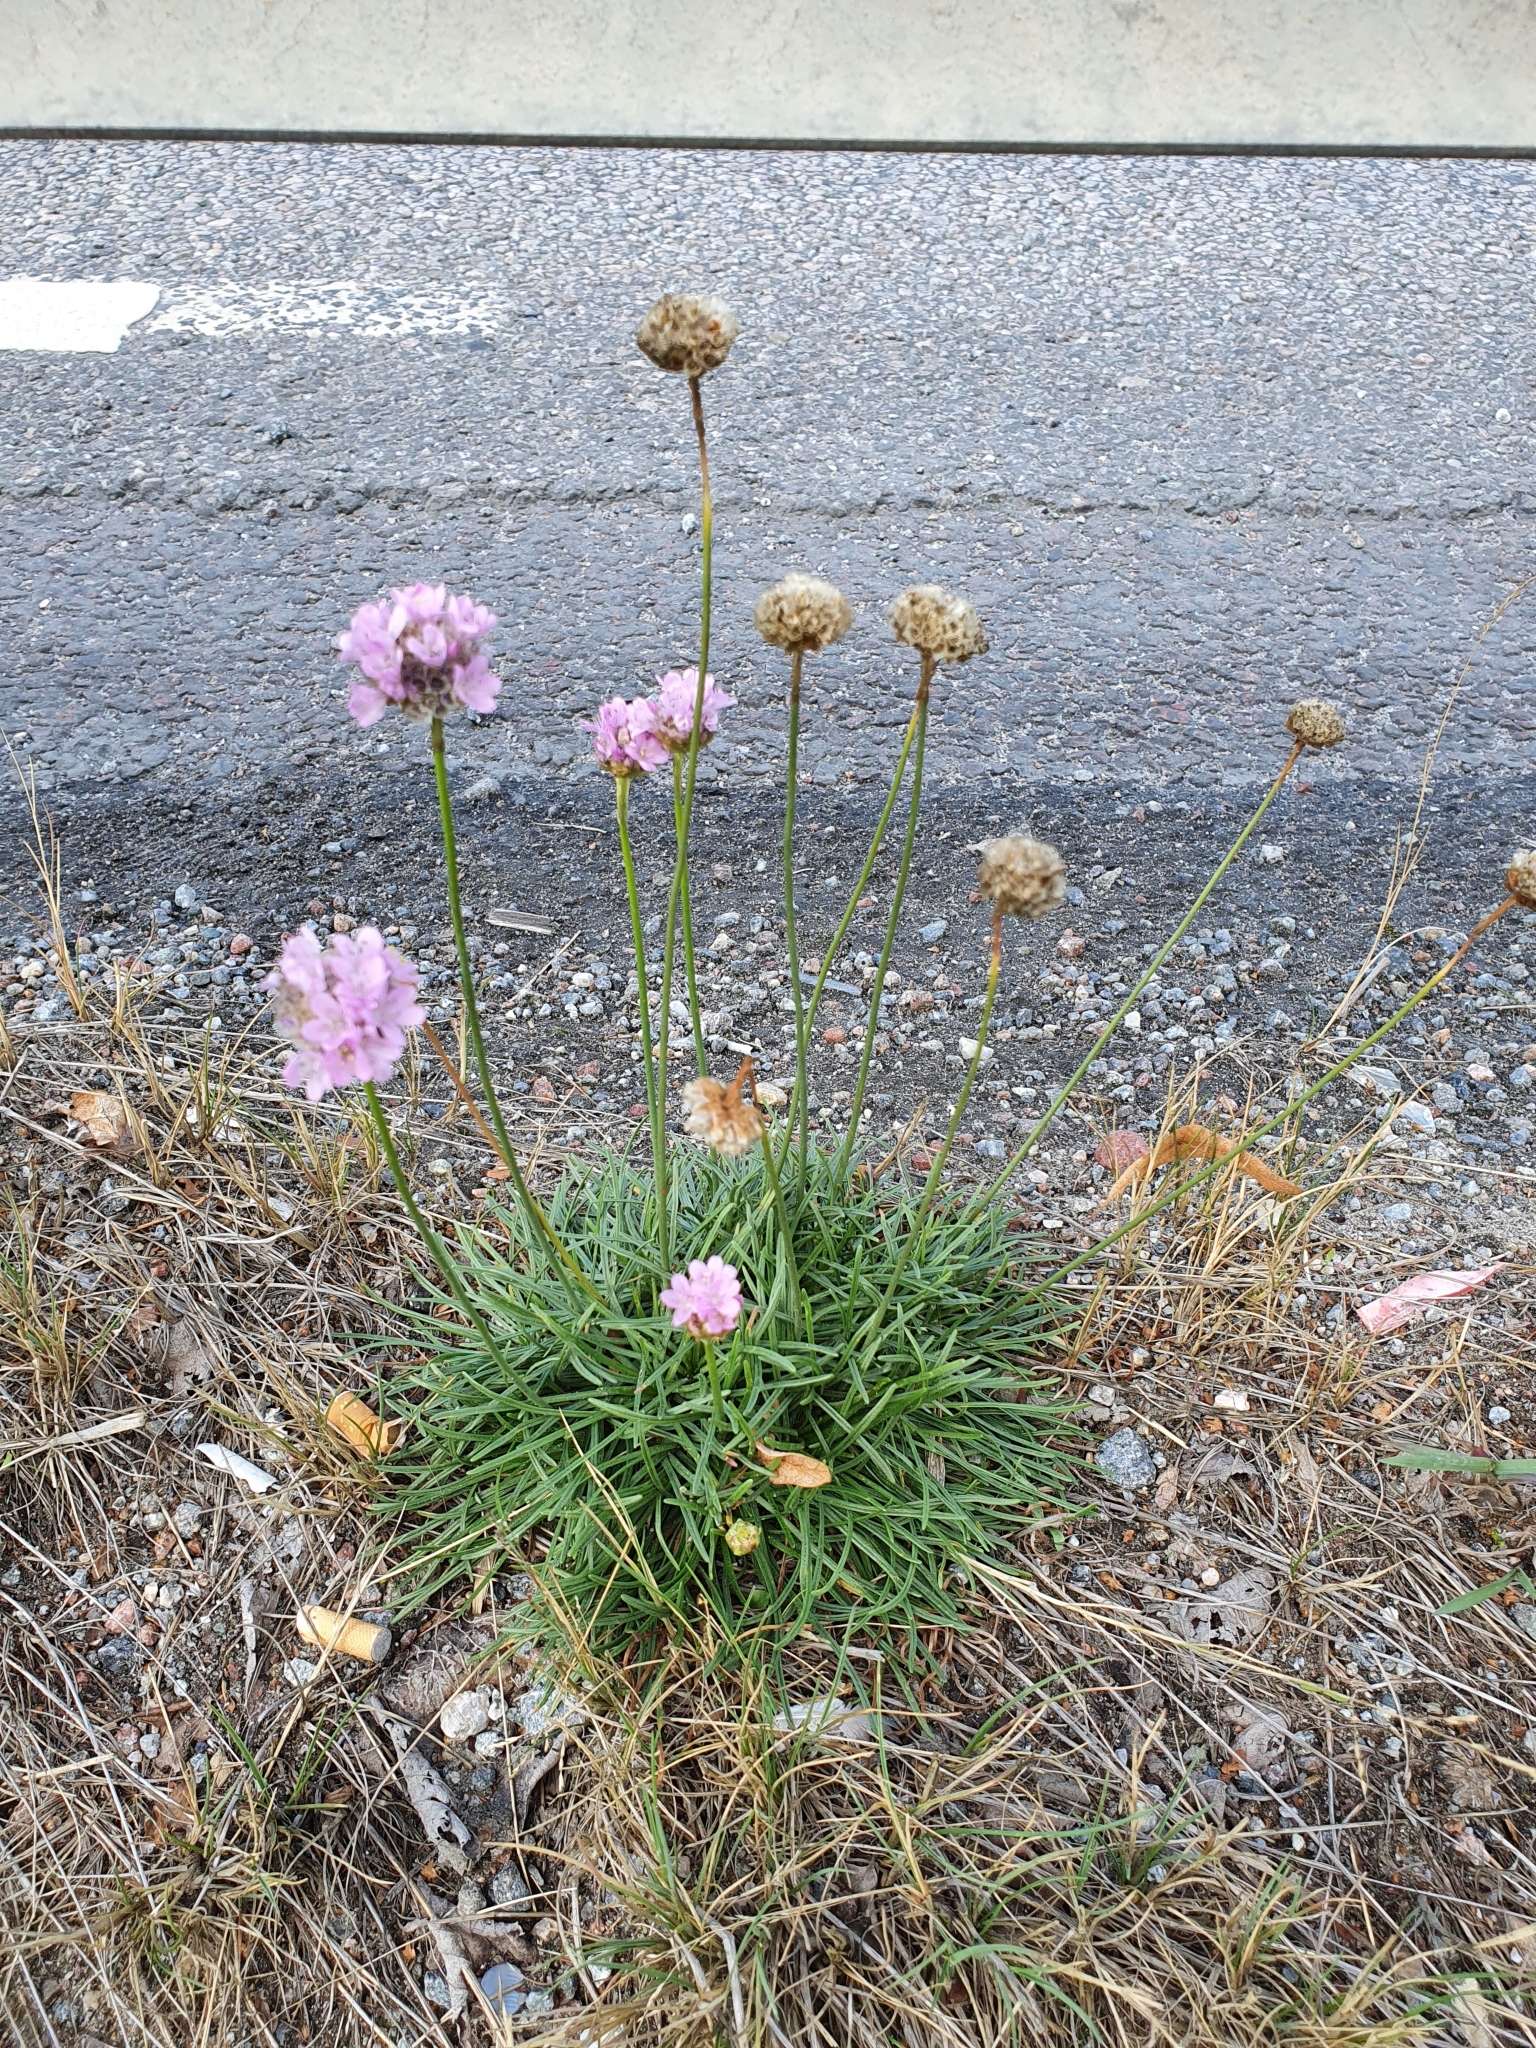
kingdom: Plantae
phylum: Tracheophyta
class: Magnoliopsida
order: Caryophyllales
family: Plumbaginaceae
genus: Armeria
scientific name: Armeria maritima
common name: Thrift
